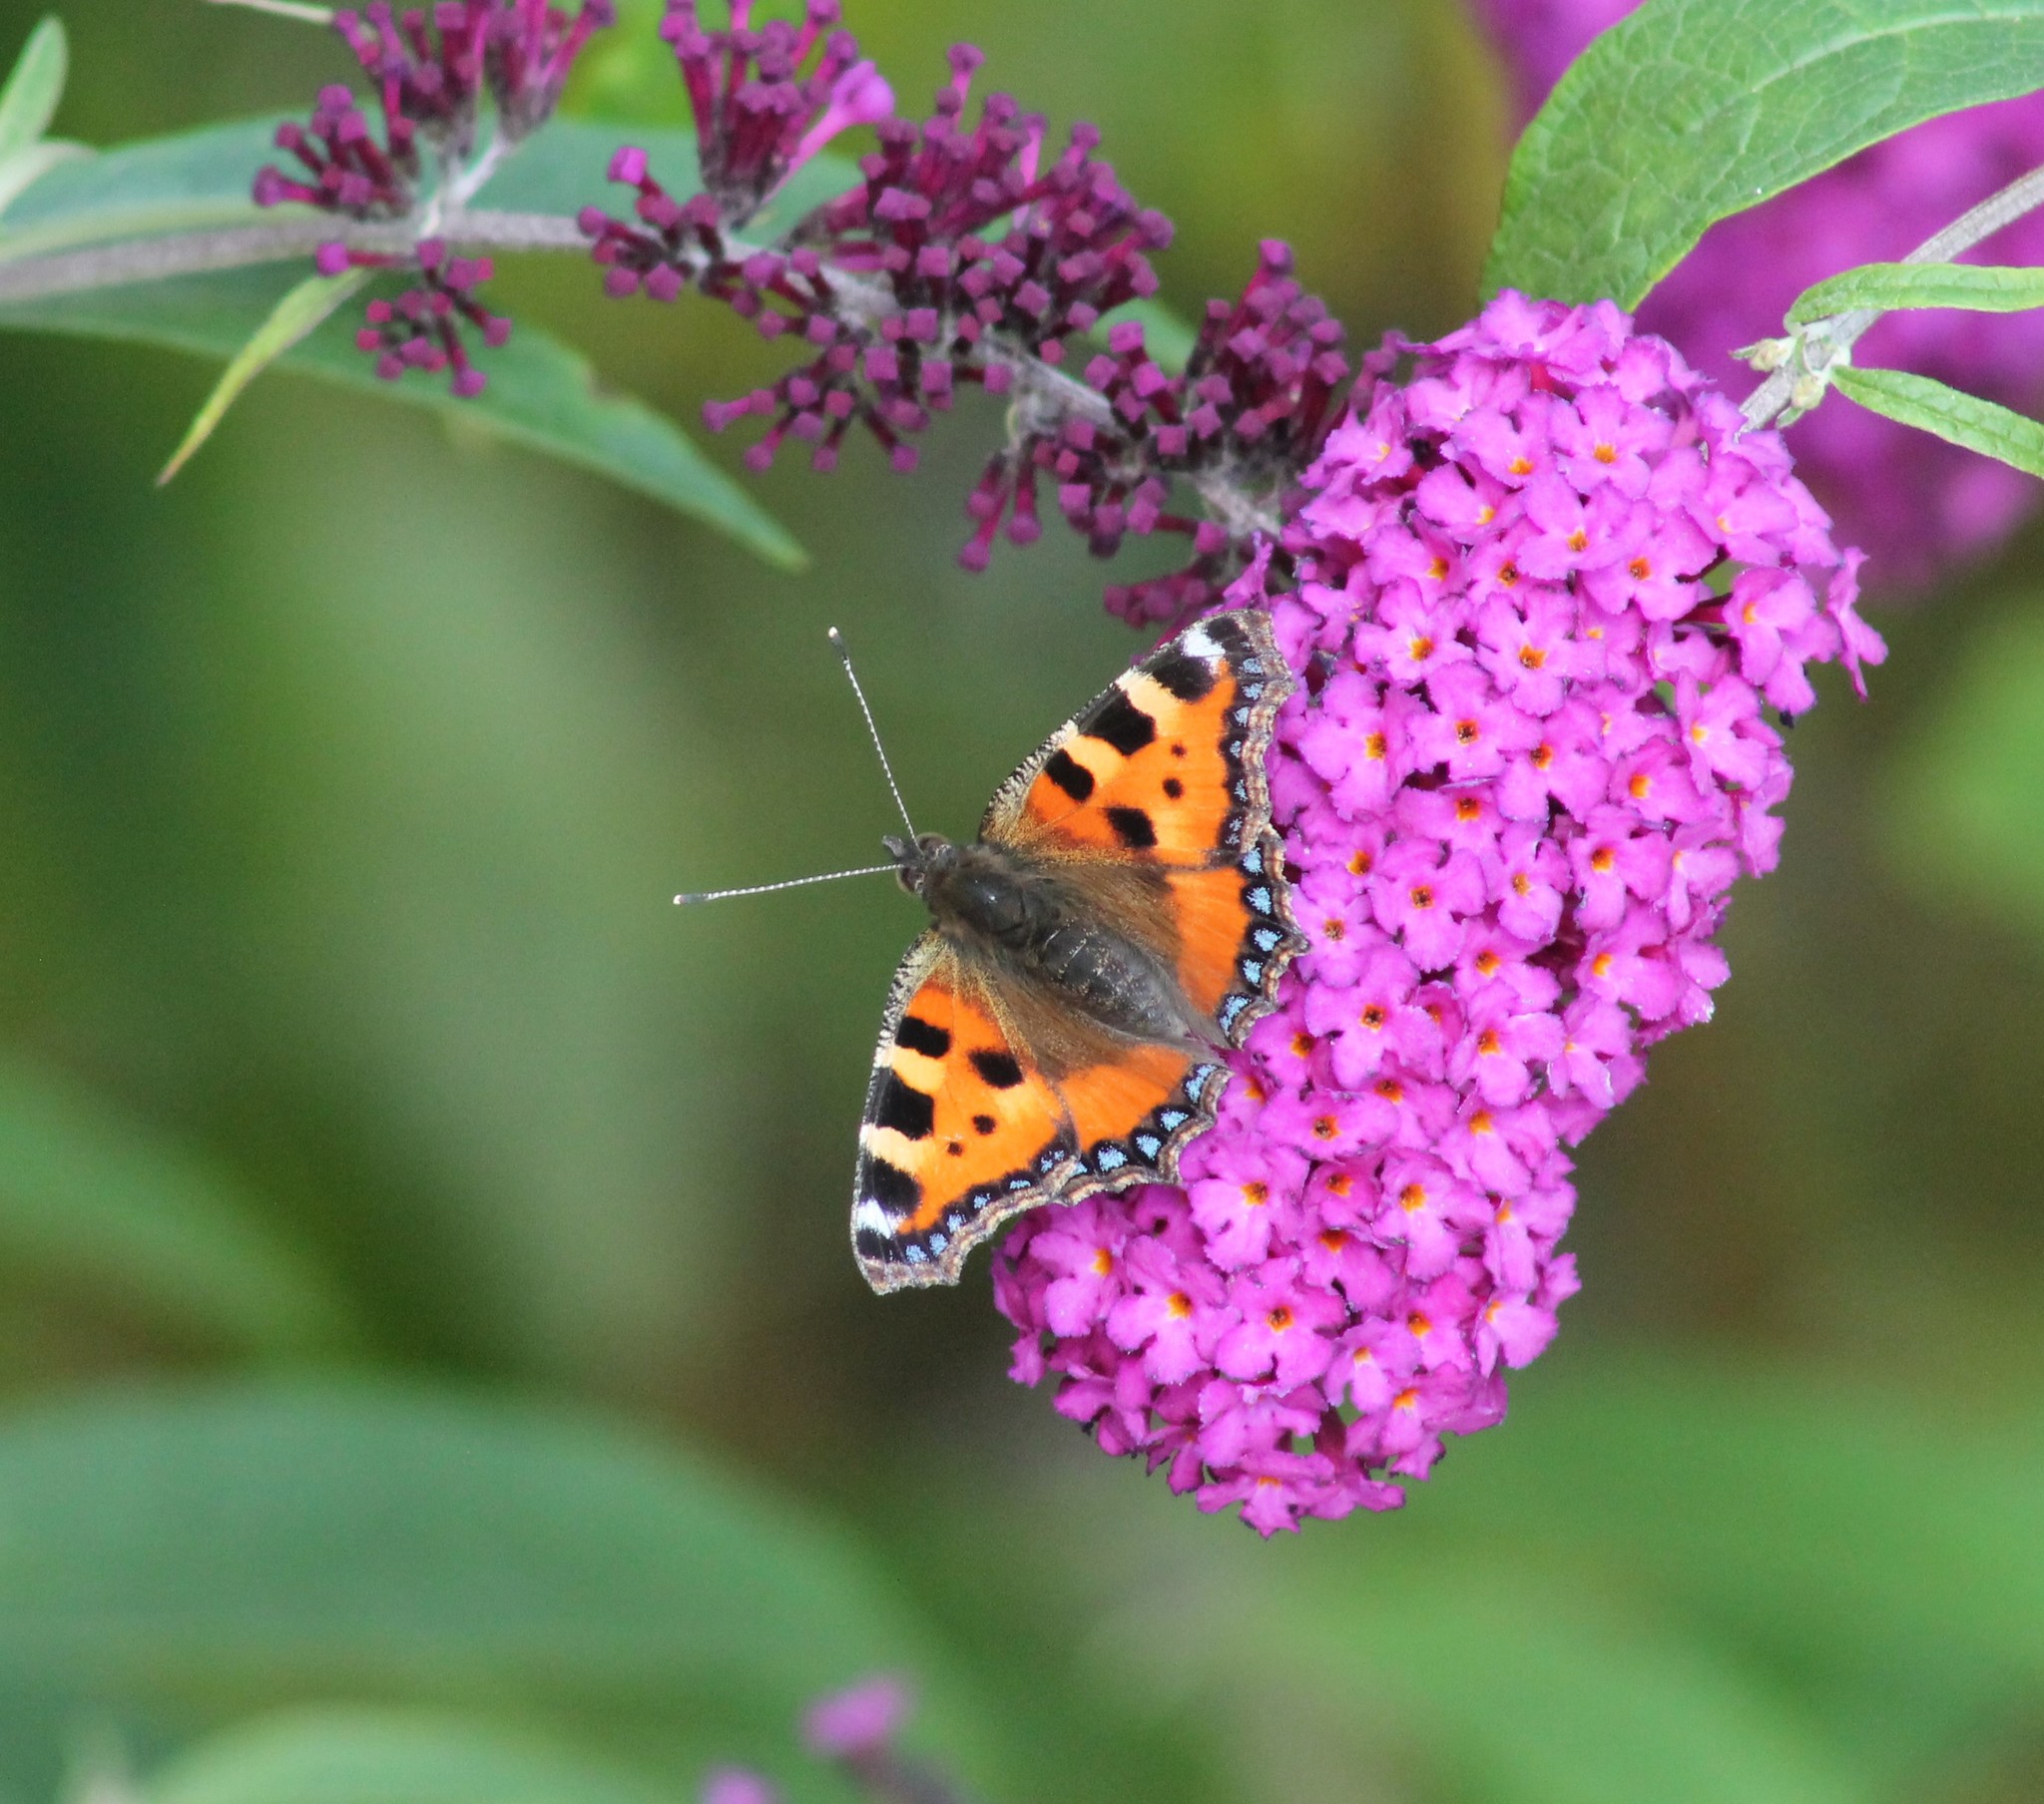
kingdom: Animalia
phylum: Arthropoda
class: Insecta
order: Lepidoptera
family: Nymphalidae
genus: Aglais
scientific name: Aglais urticae
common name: Small tortoiseshell
